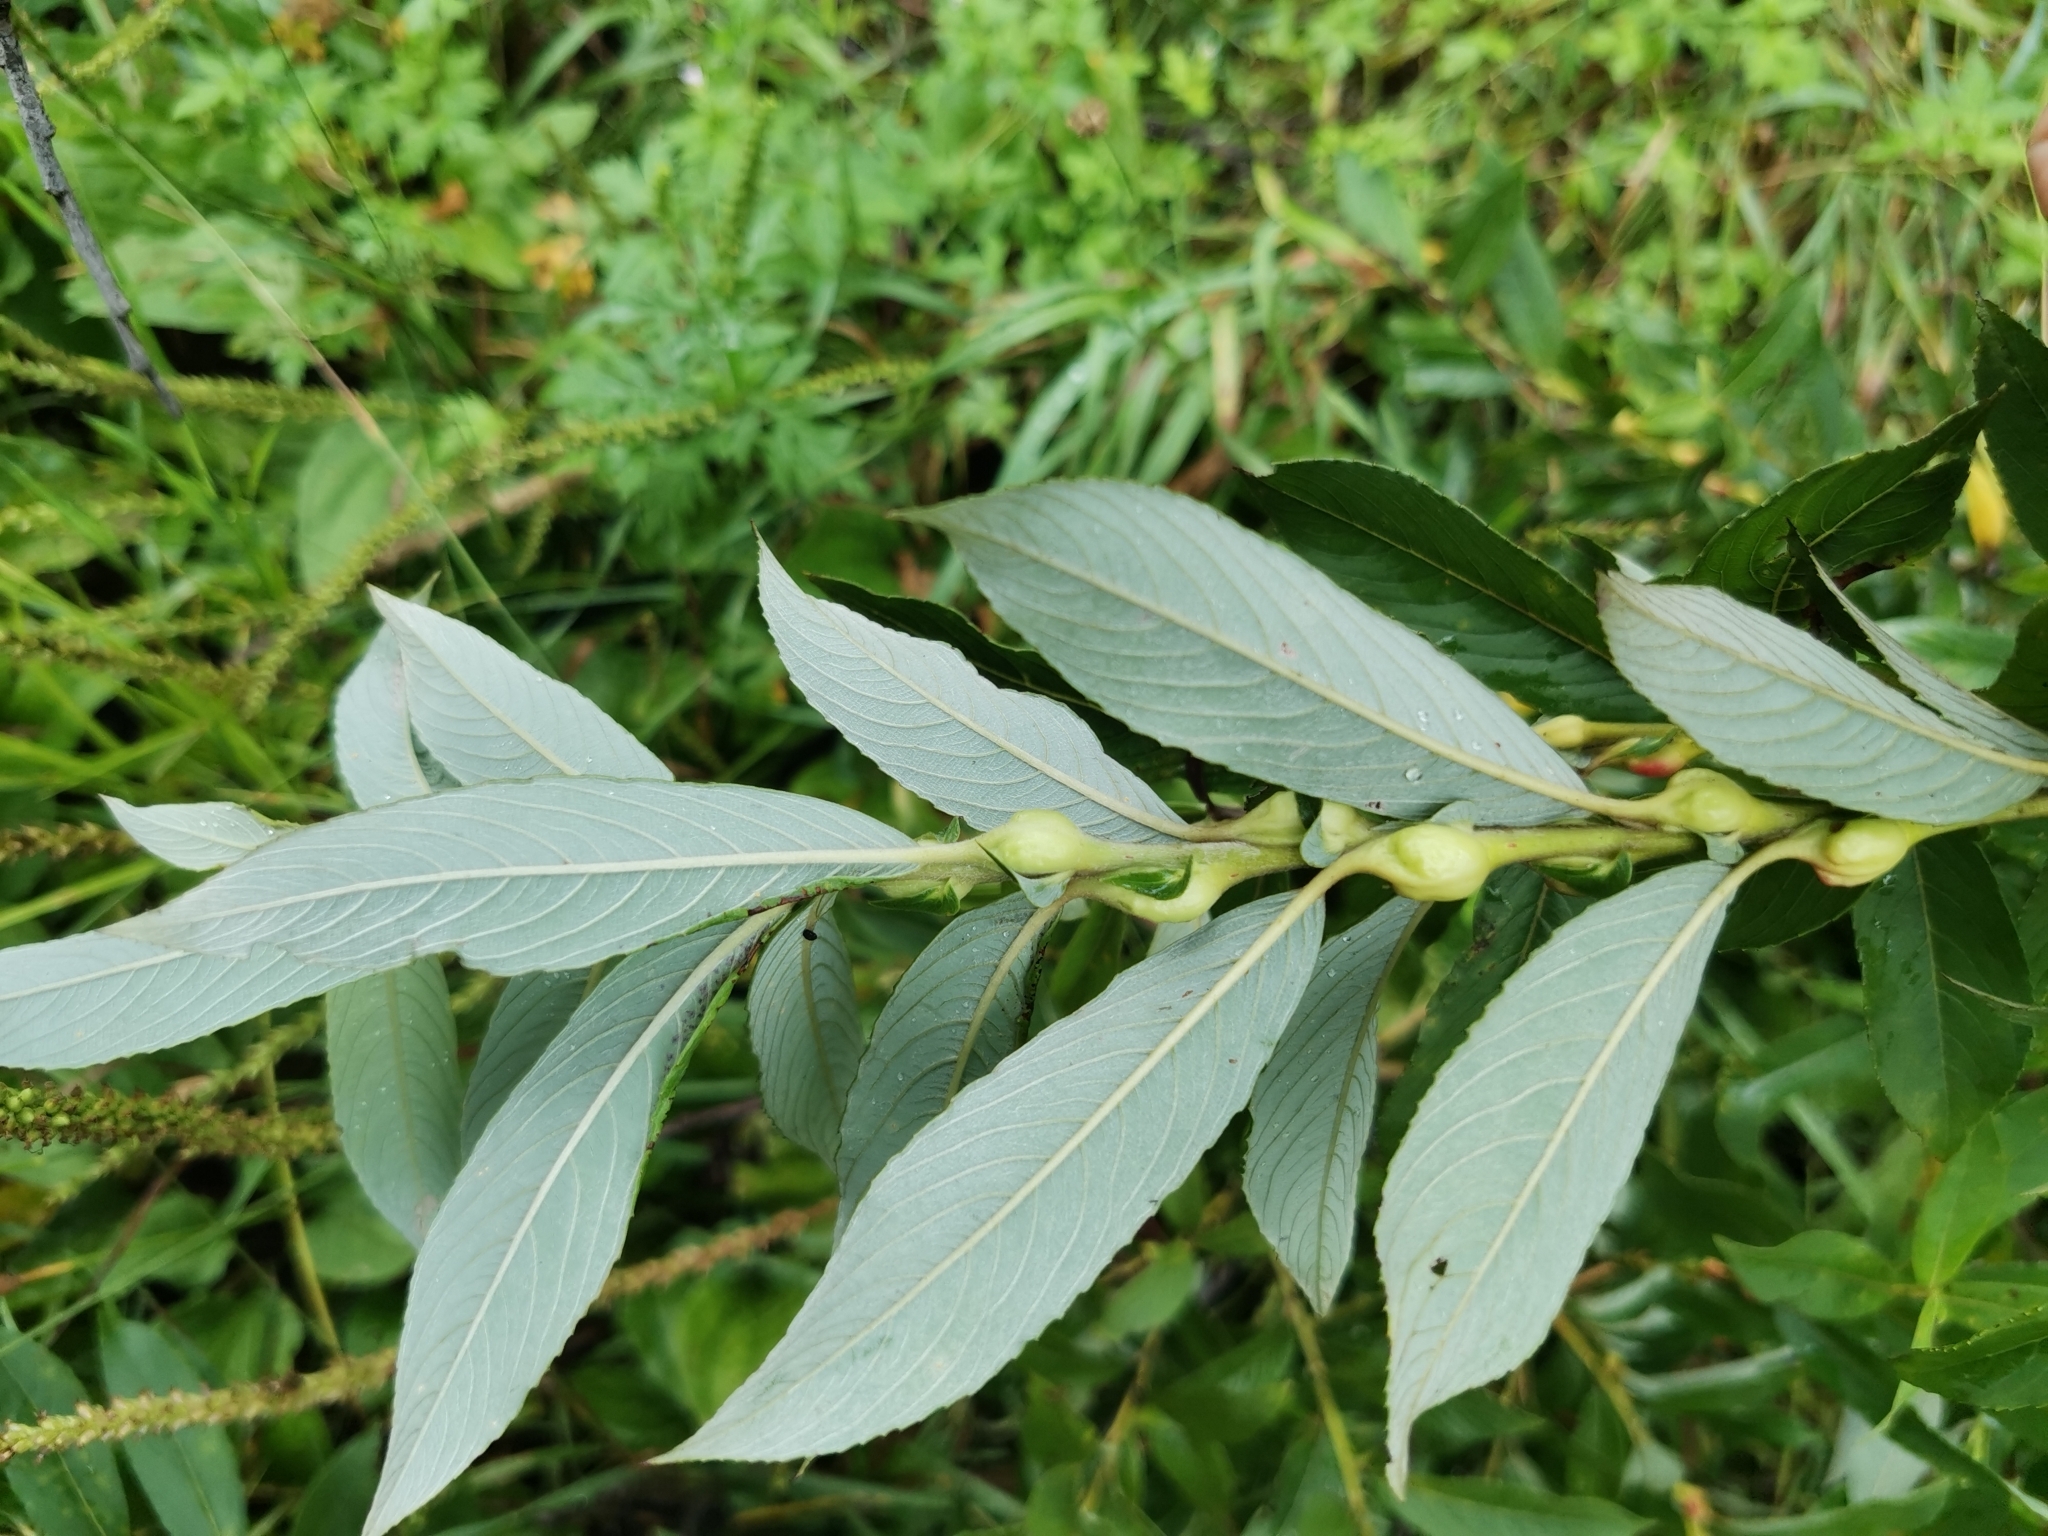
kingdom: Plantae
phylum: Tracheophyta
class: Magnoliopsida
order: Malpighiales
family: Salicaceae
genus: Salix
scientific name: Salix gracilistyla
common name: Rose-gold pussy willow
